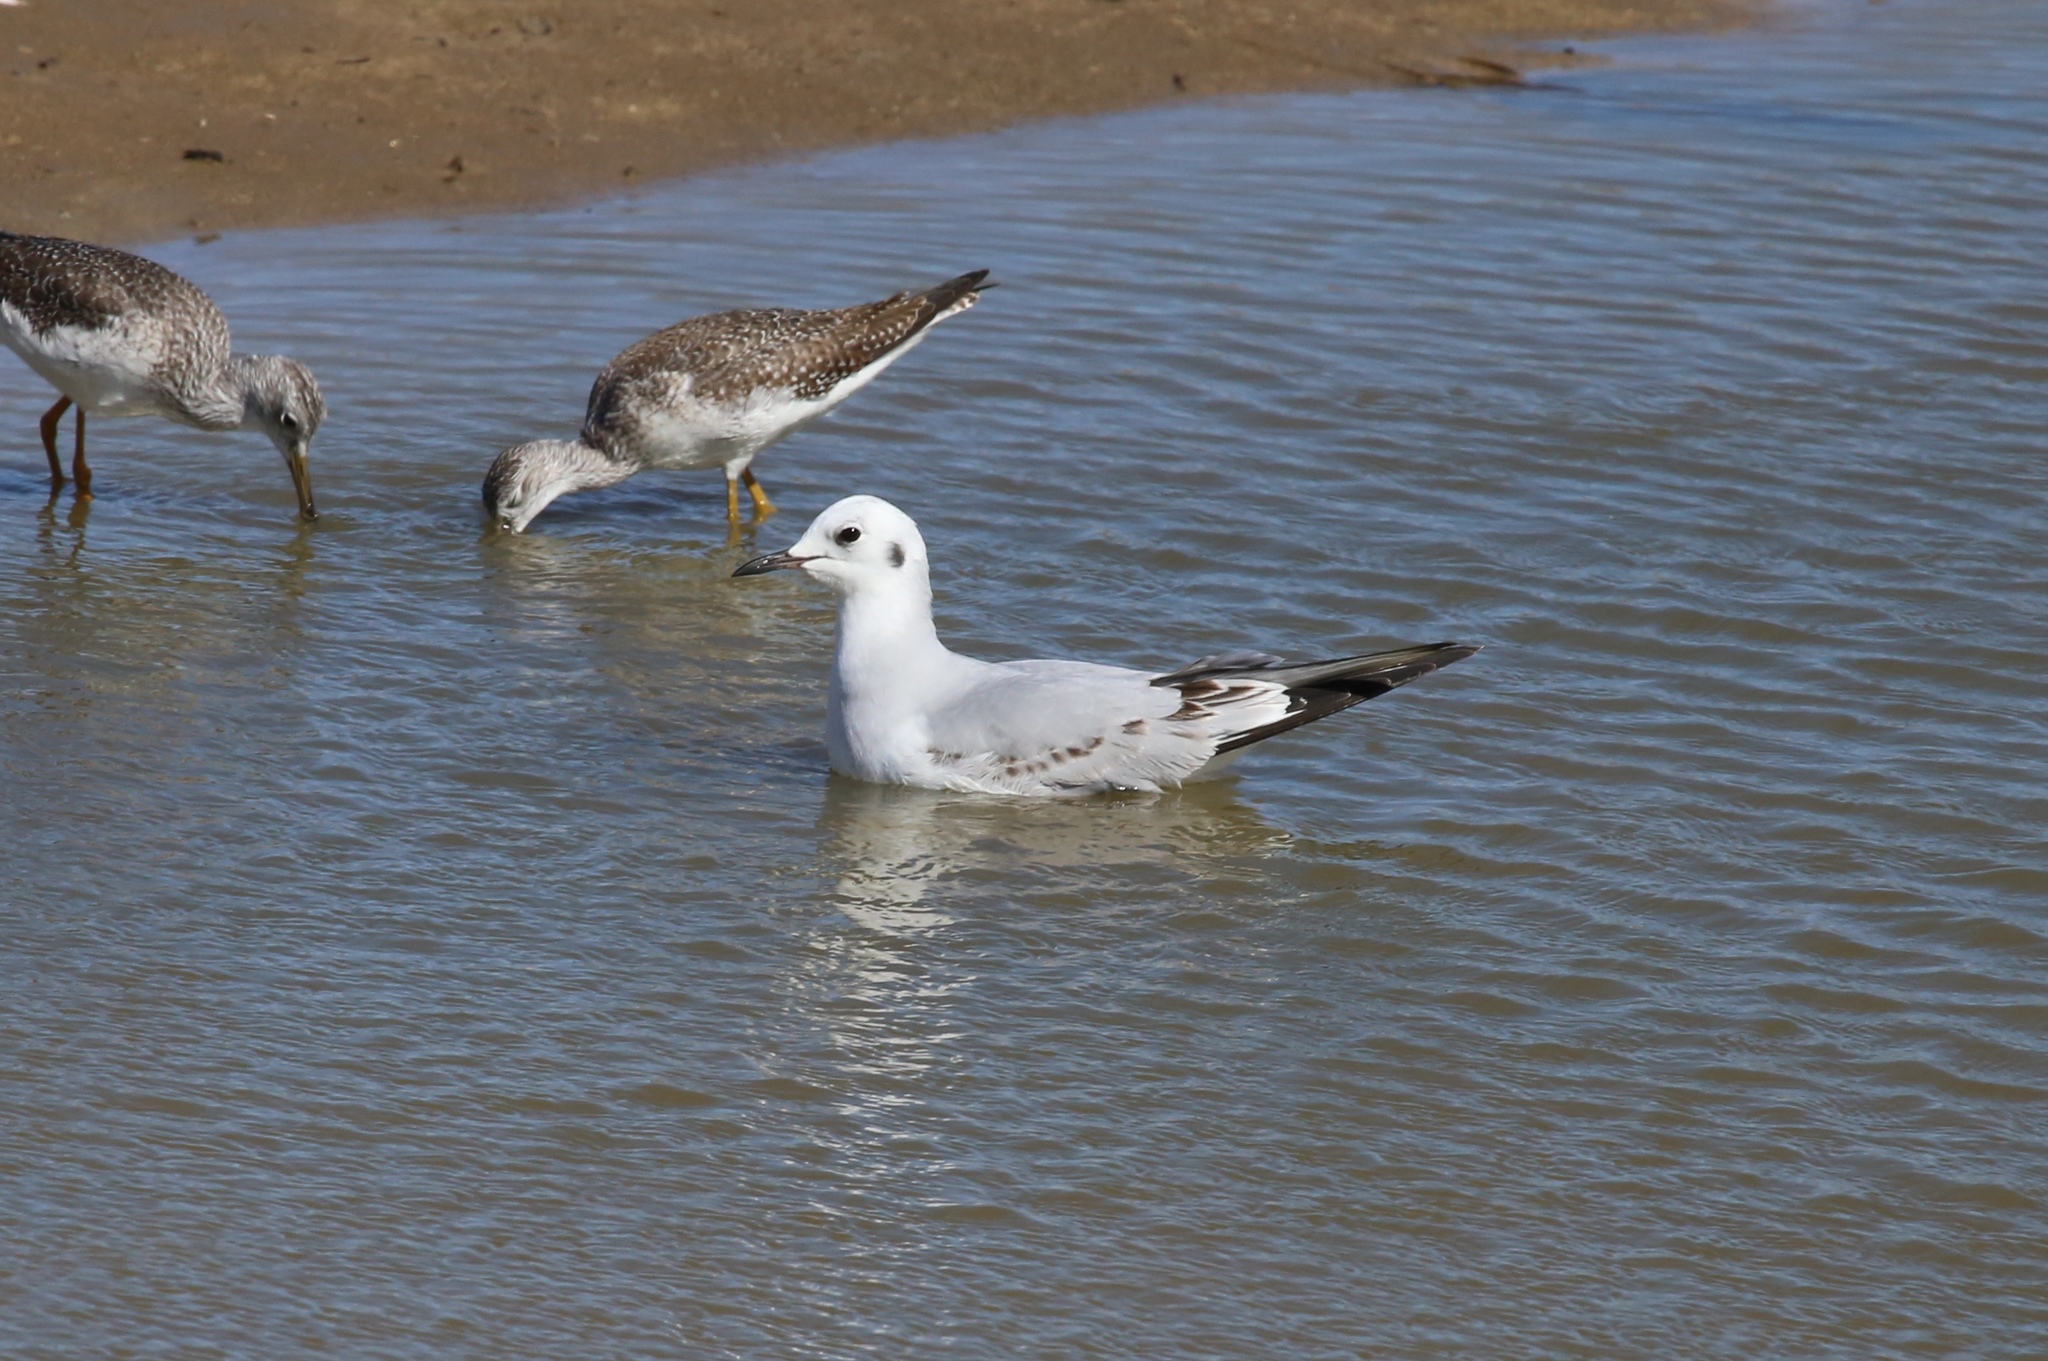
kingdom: Animalia
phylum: Chordata
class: Aves
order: Charadriiformes
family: Laridae
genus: Chroicocephalus
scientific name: Chroicocephalus philadelphia
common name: Bonaparte's gull
